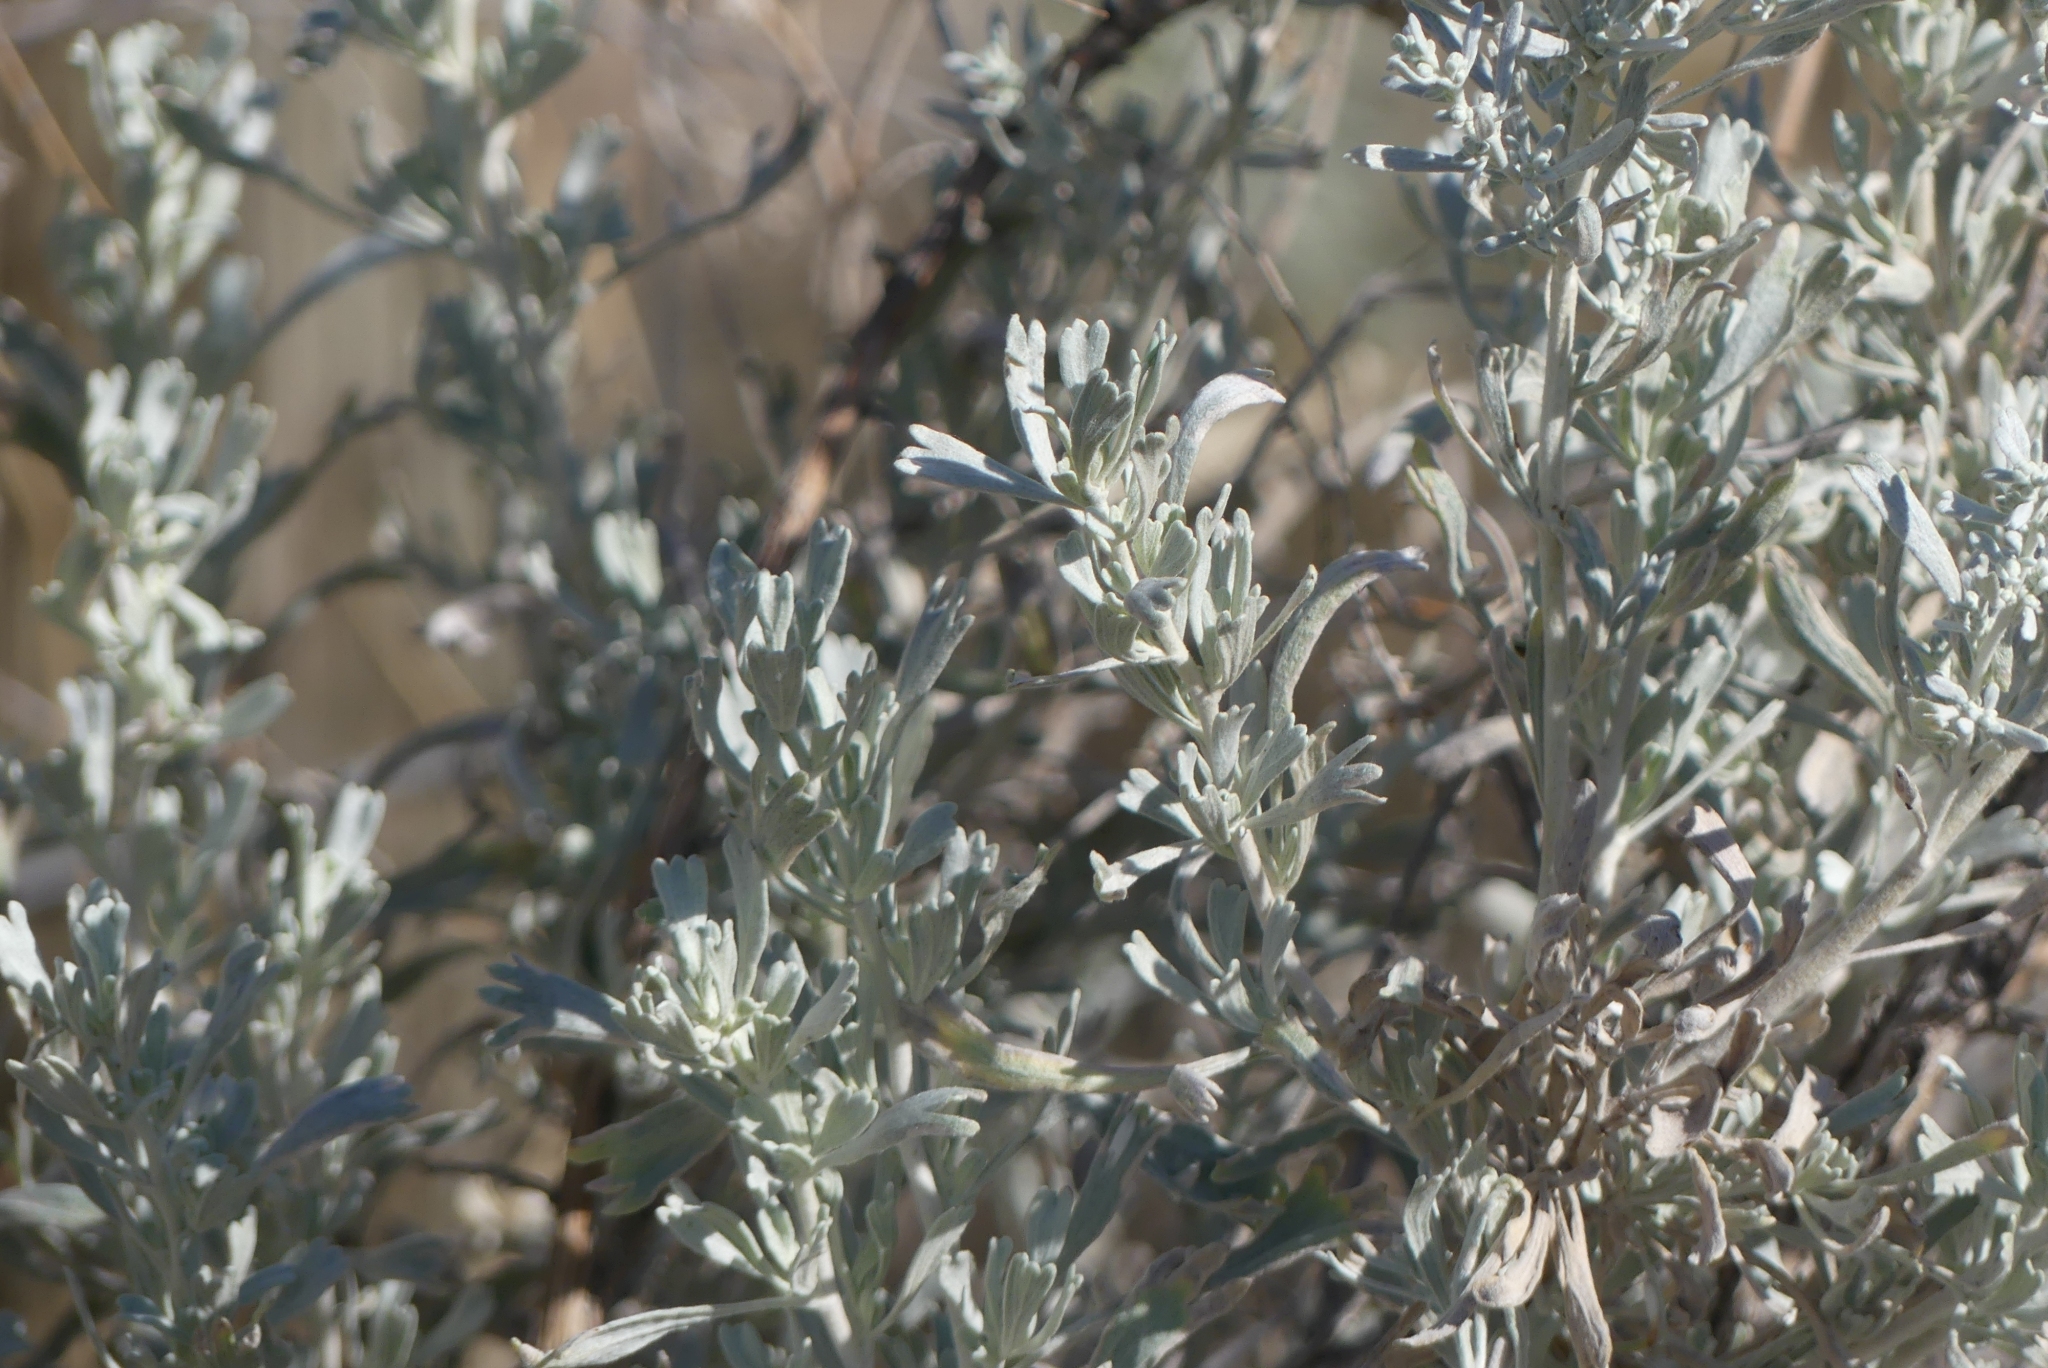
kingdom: Plantae
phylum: Tracheophyta
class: Magnoliopsida
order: Asterales
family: Asteraceae
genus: Artemisia
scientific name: Artemisia tridentata
